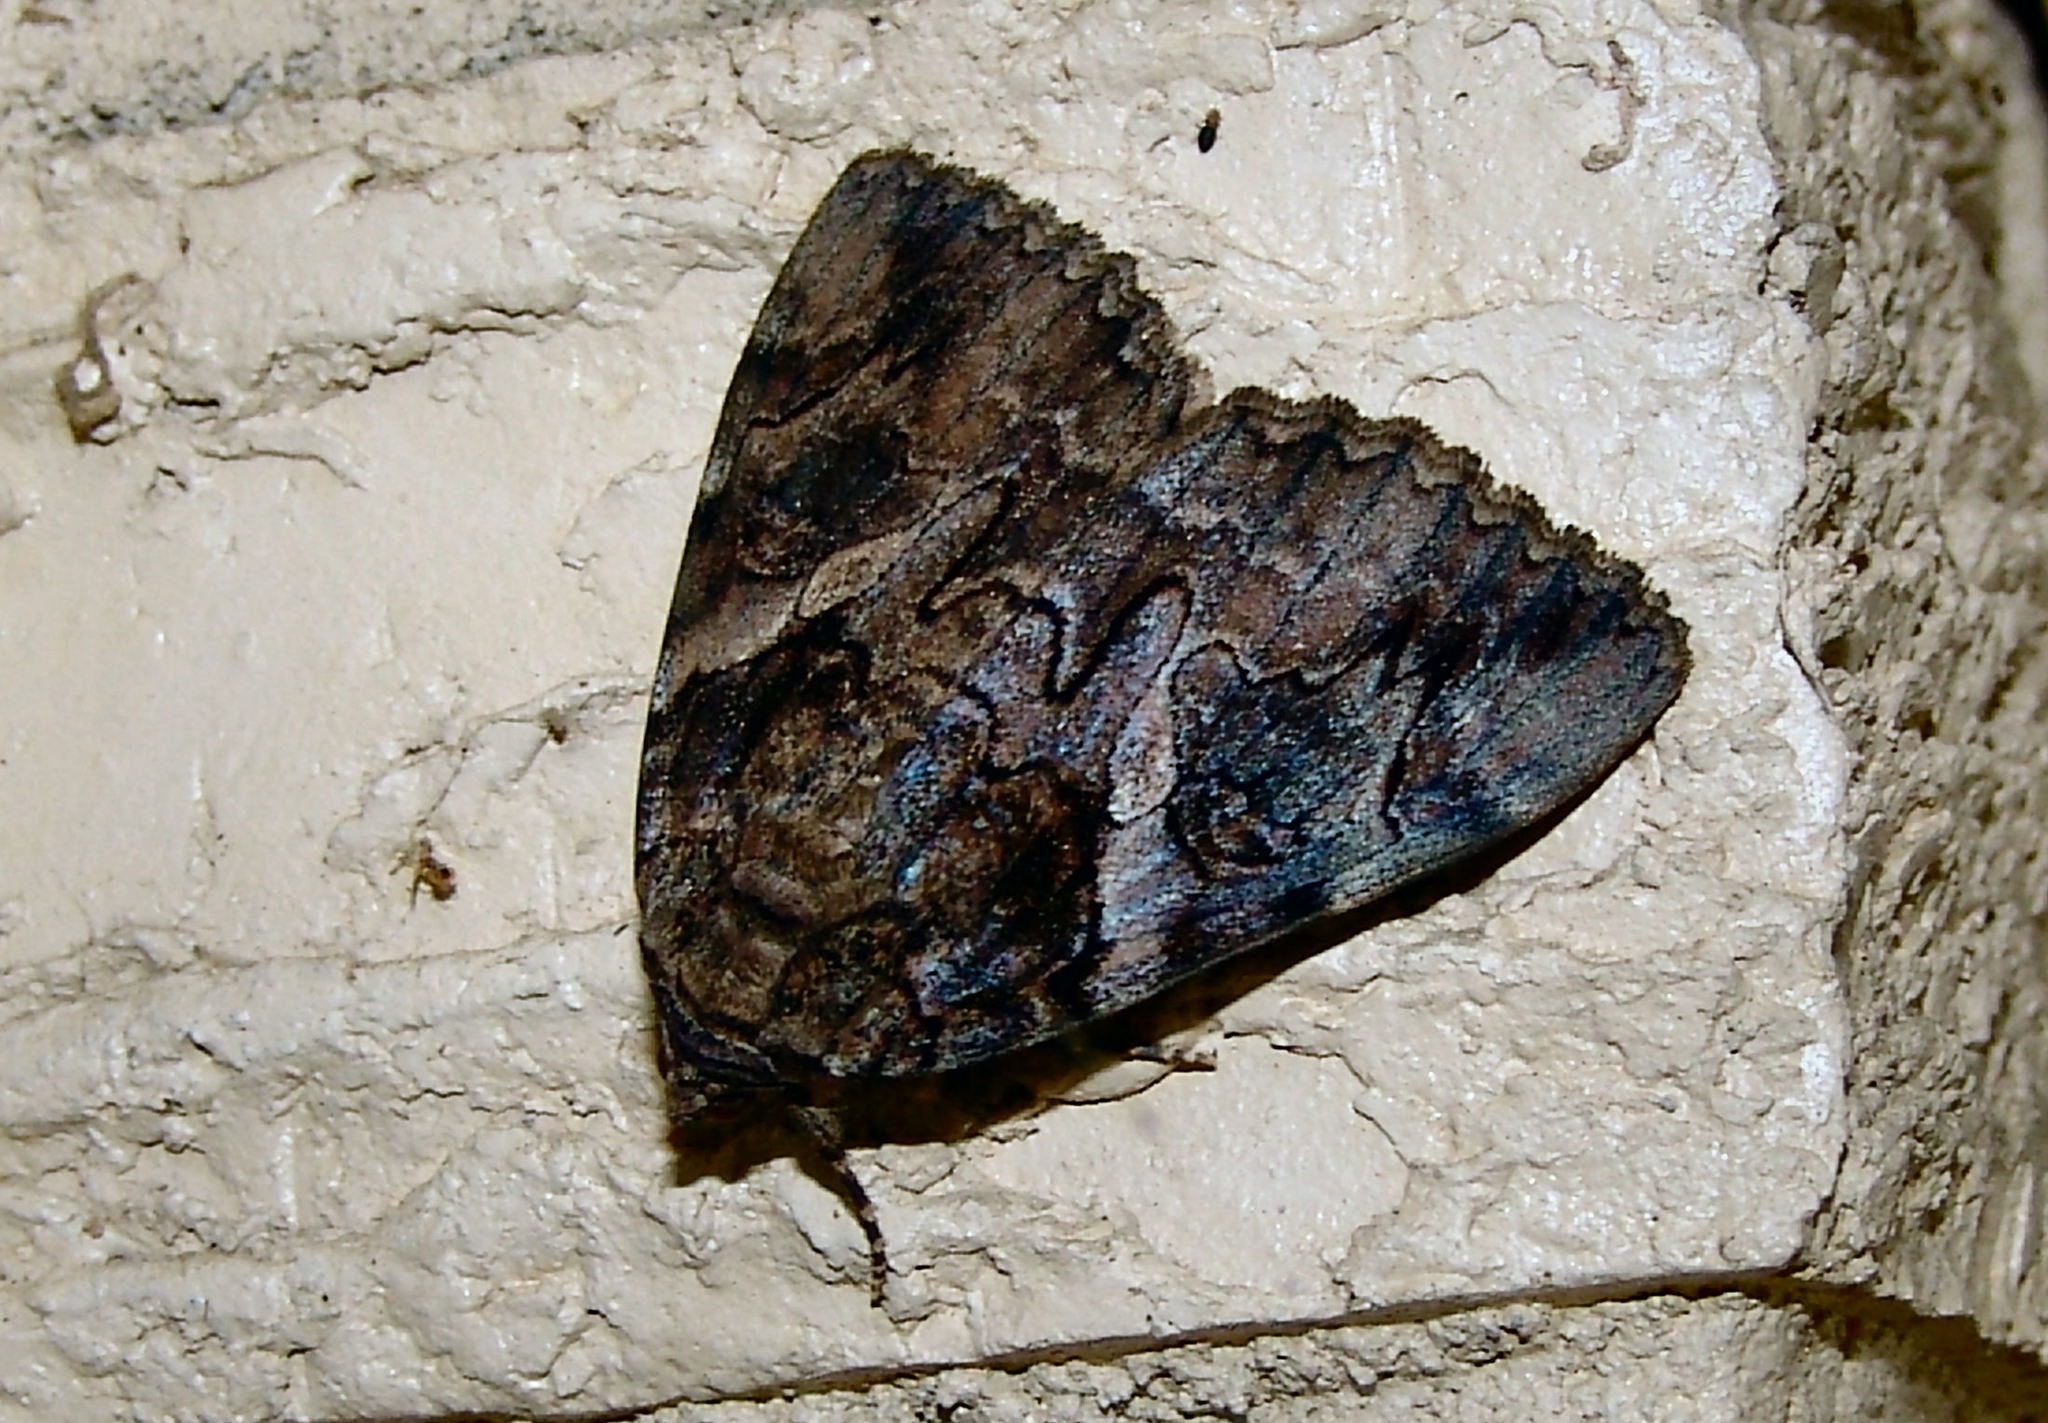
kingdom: Animalia
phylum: Arthropoda
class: Insecta
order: Lepidoptera
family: Erebidae
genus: Catocala
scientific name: Catocala piatrix
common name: The penitent underwing
